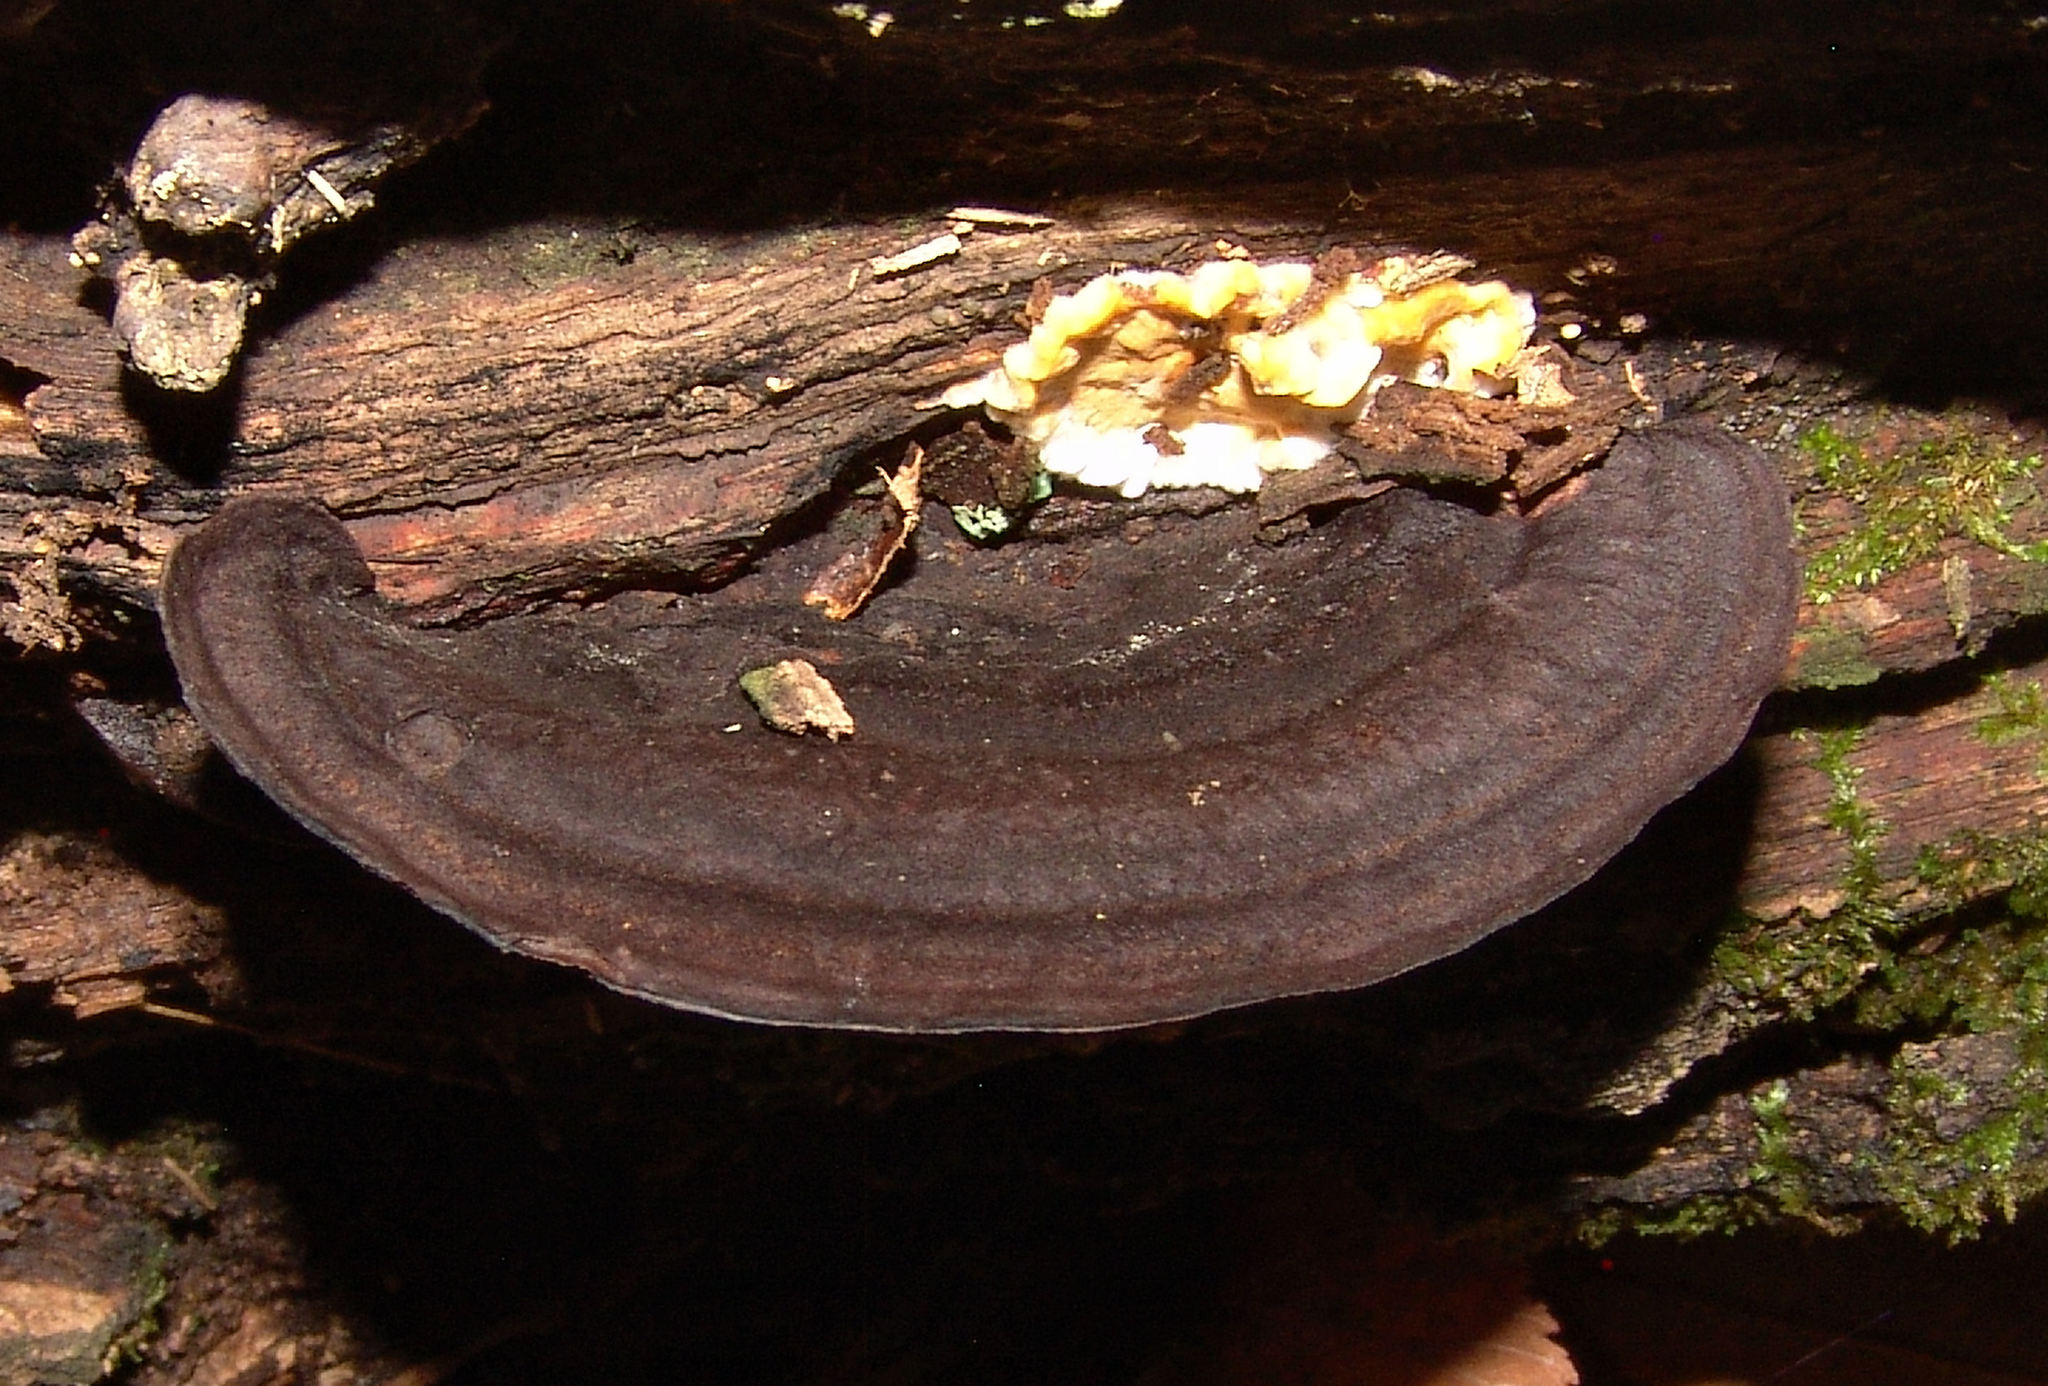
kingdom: Fungi
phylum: Basidiomycota
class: Agaricomycetes
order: Polyporales
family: Steccherinaceae
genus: Nigroporus
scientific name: Nigroporus vinosus
